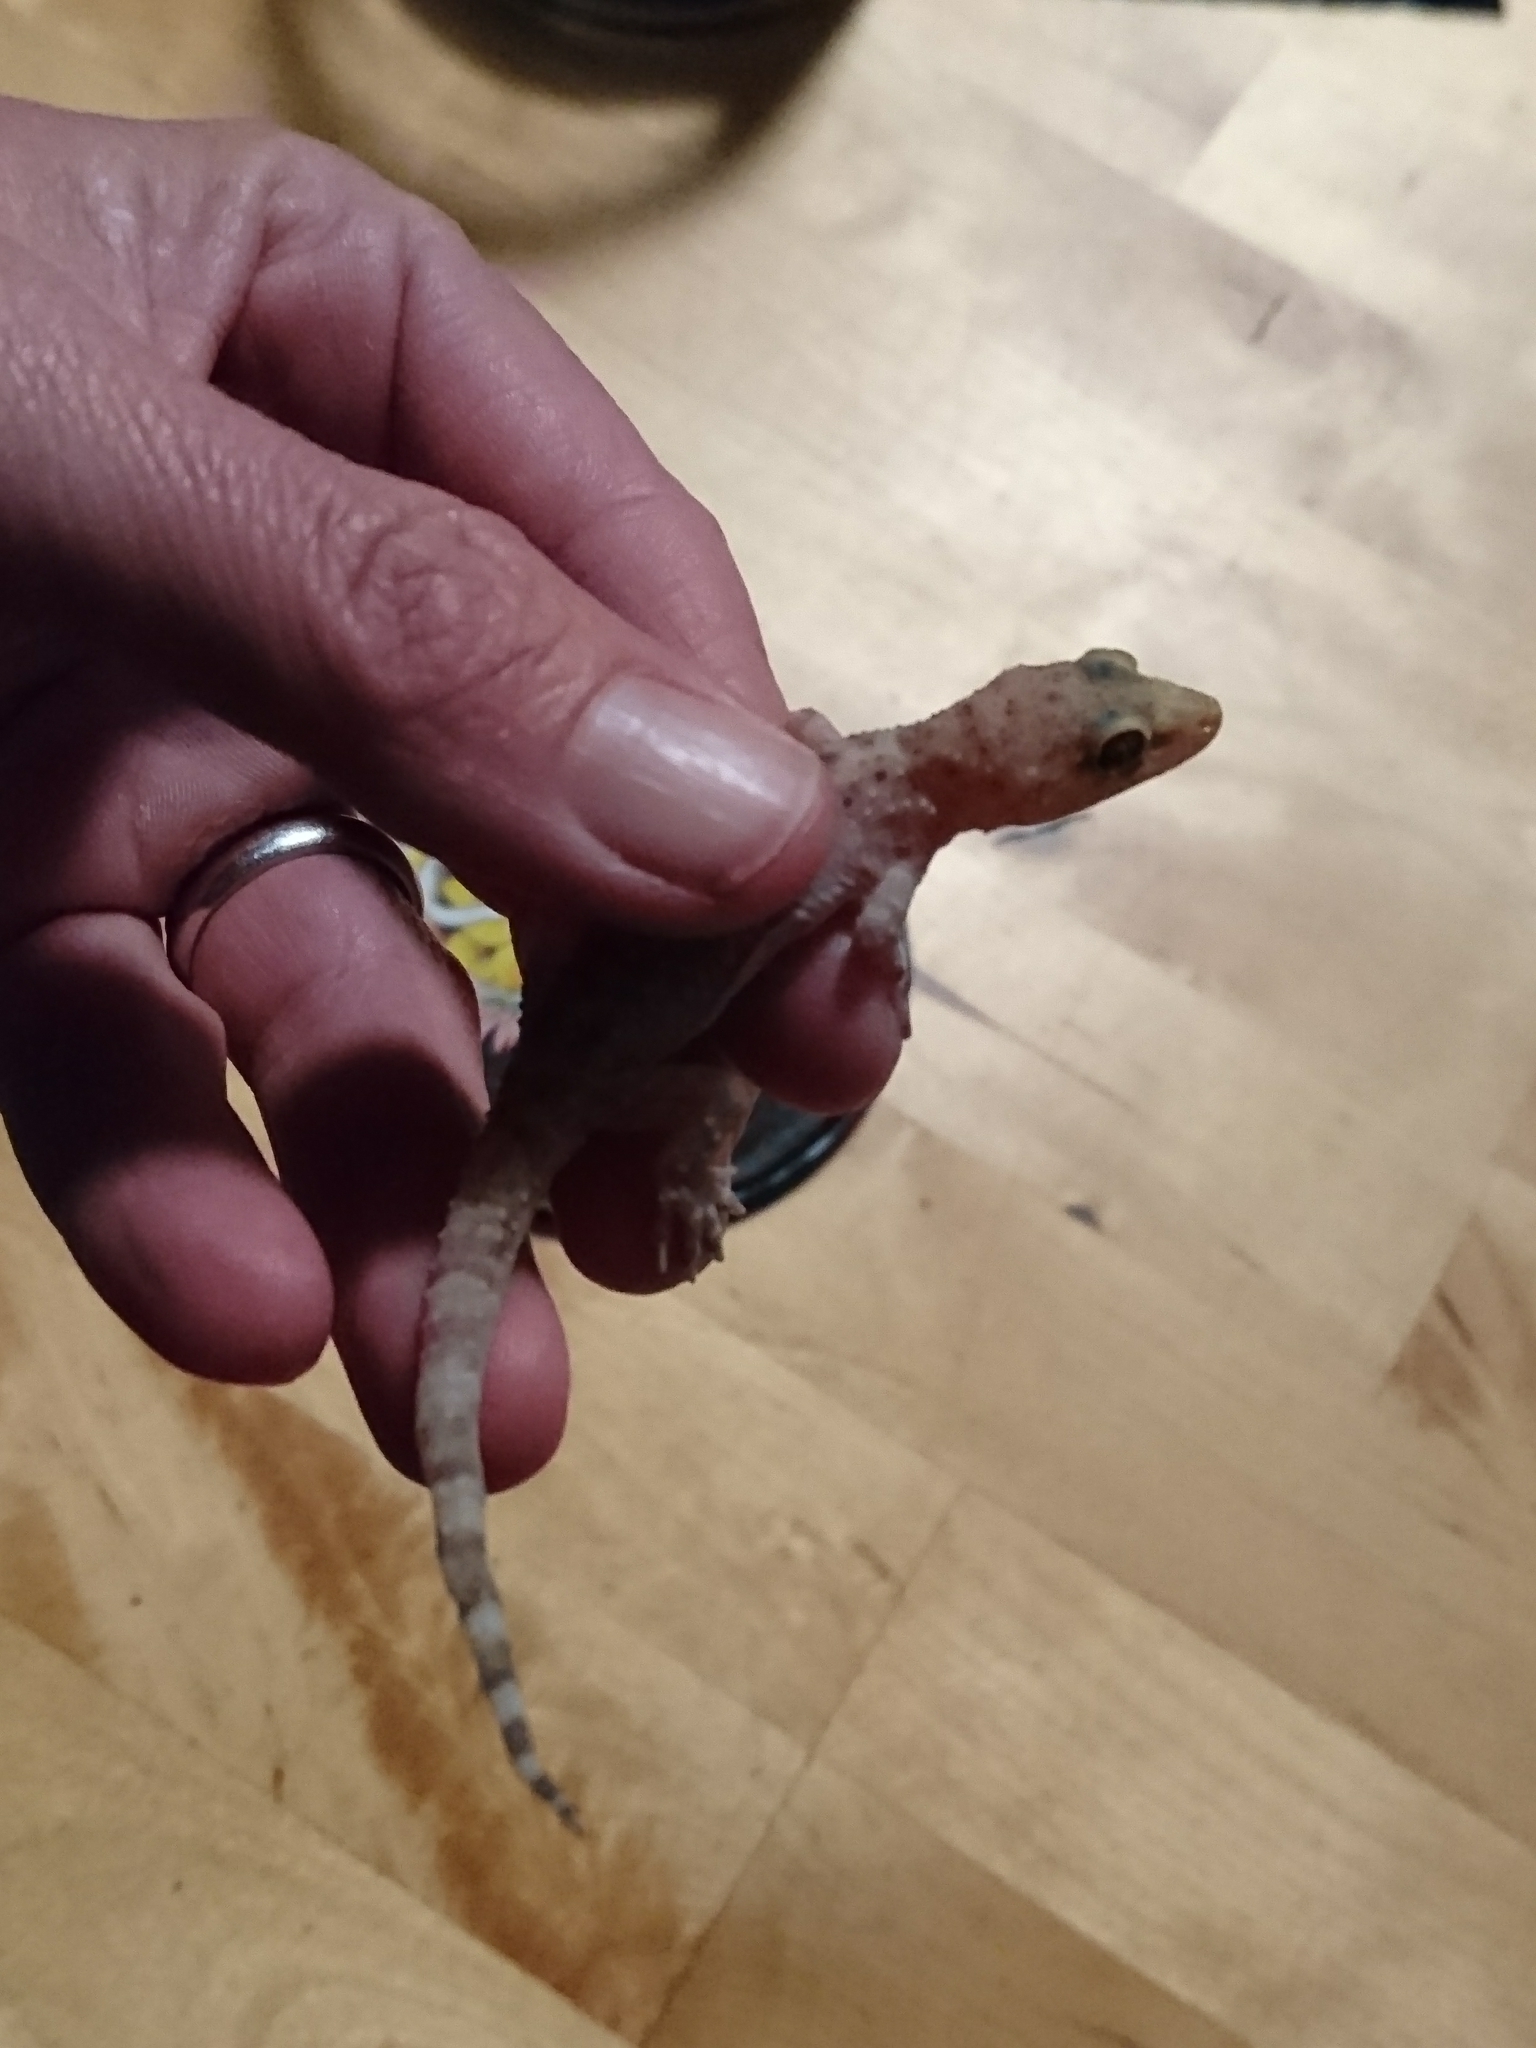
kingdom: Animalia
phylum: Chordata
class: Squamata
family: Gekkonidae
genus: Hemidactylus
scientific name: Hemidactylus turcicus
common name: Turkish gecko
